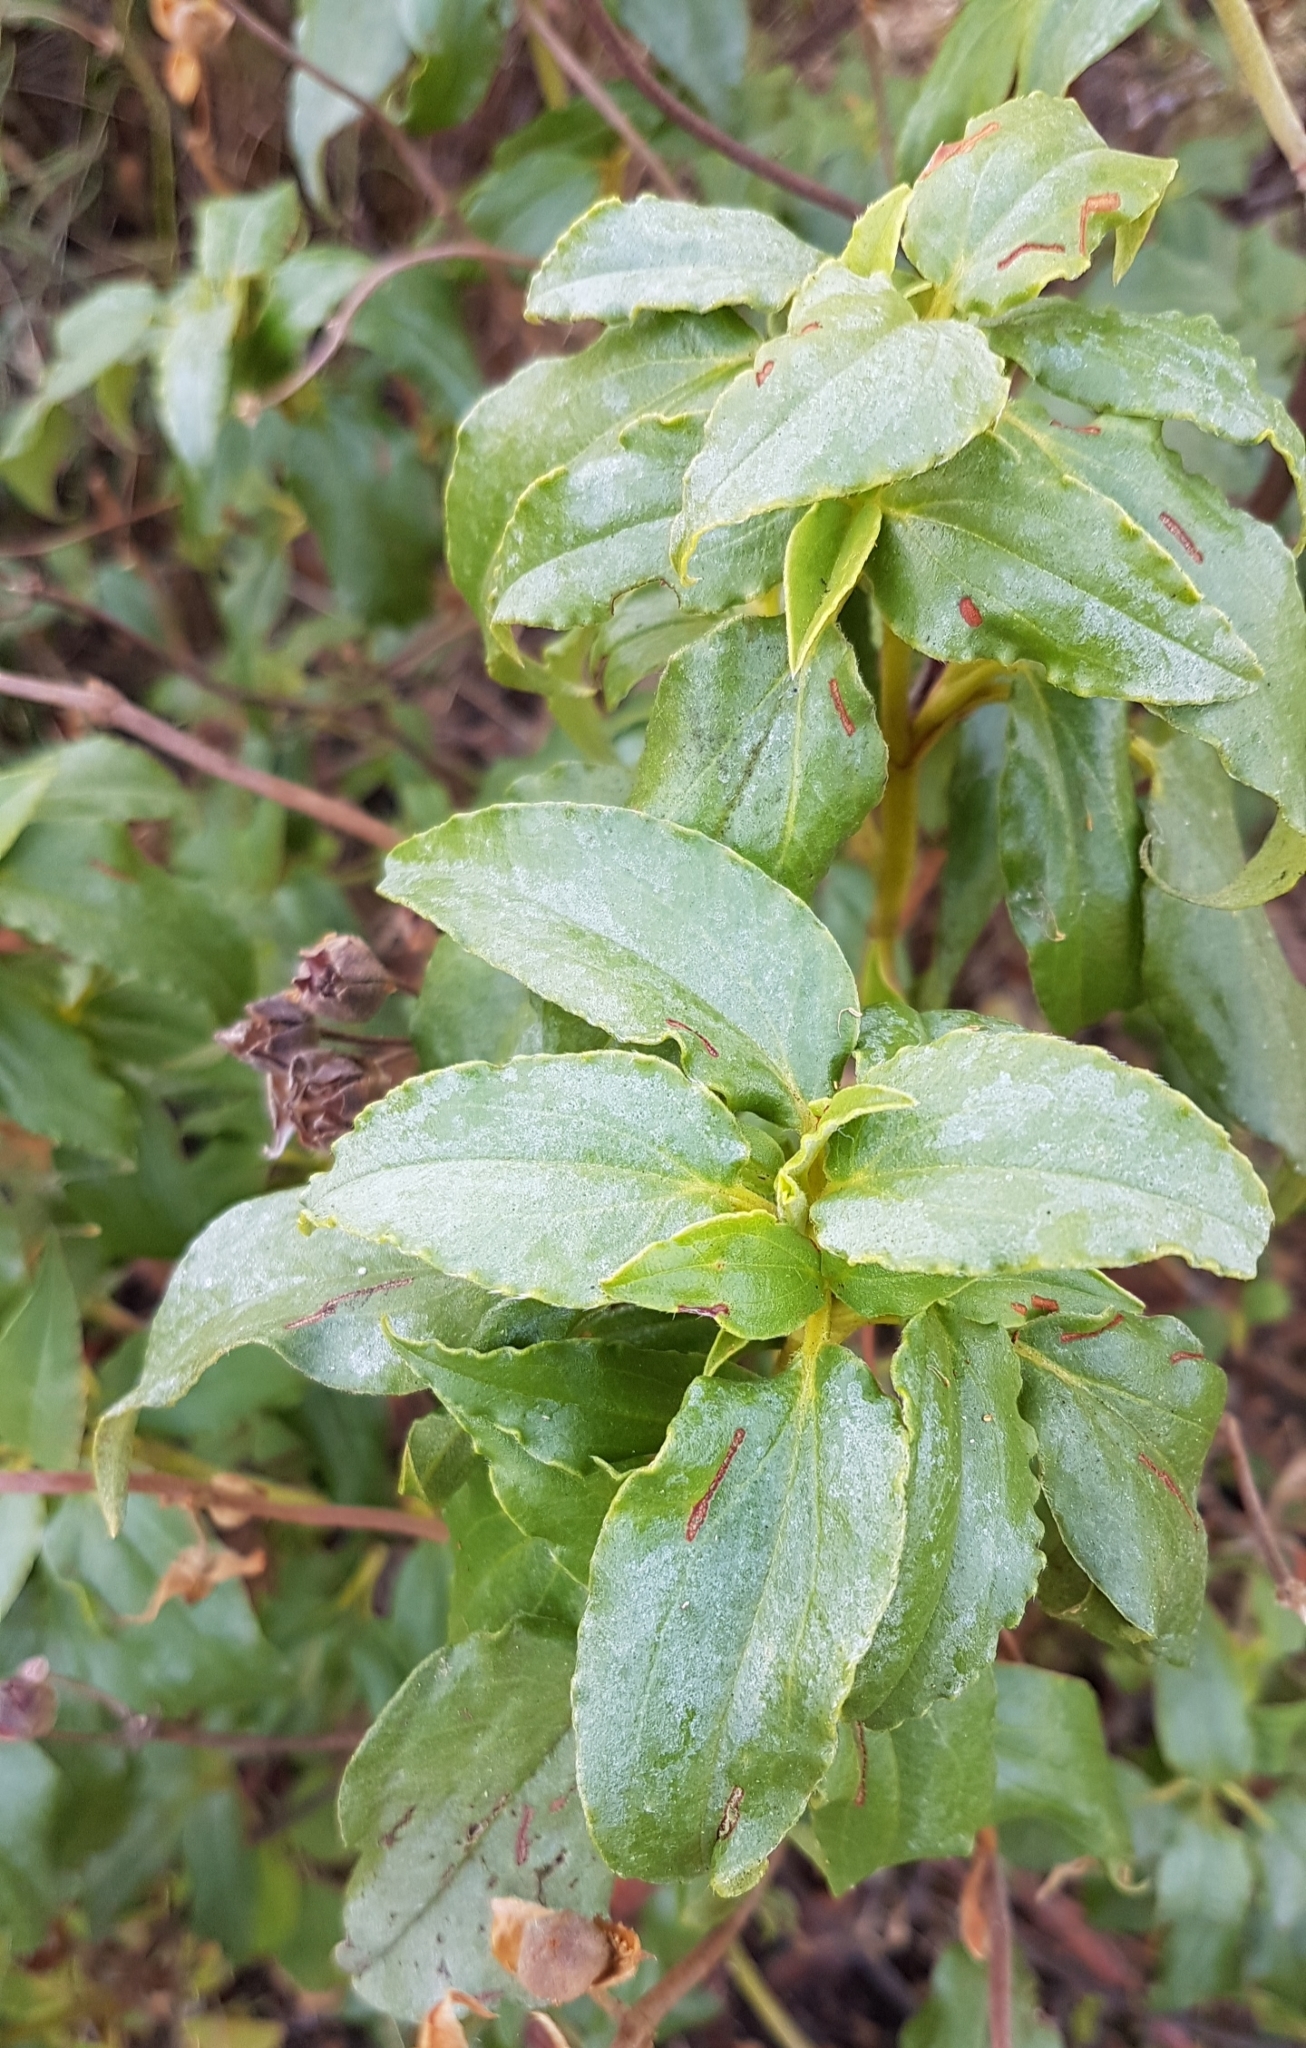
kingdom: Plantae
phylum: Tracheophyta
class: Magnoliopsida
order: Malvales
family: Cistaceae
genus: Cistus
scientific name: Cistus laurifolius
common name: Laurel-leaved cistus
